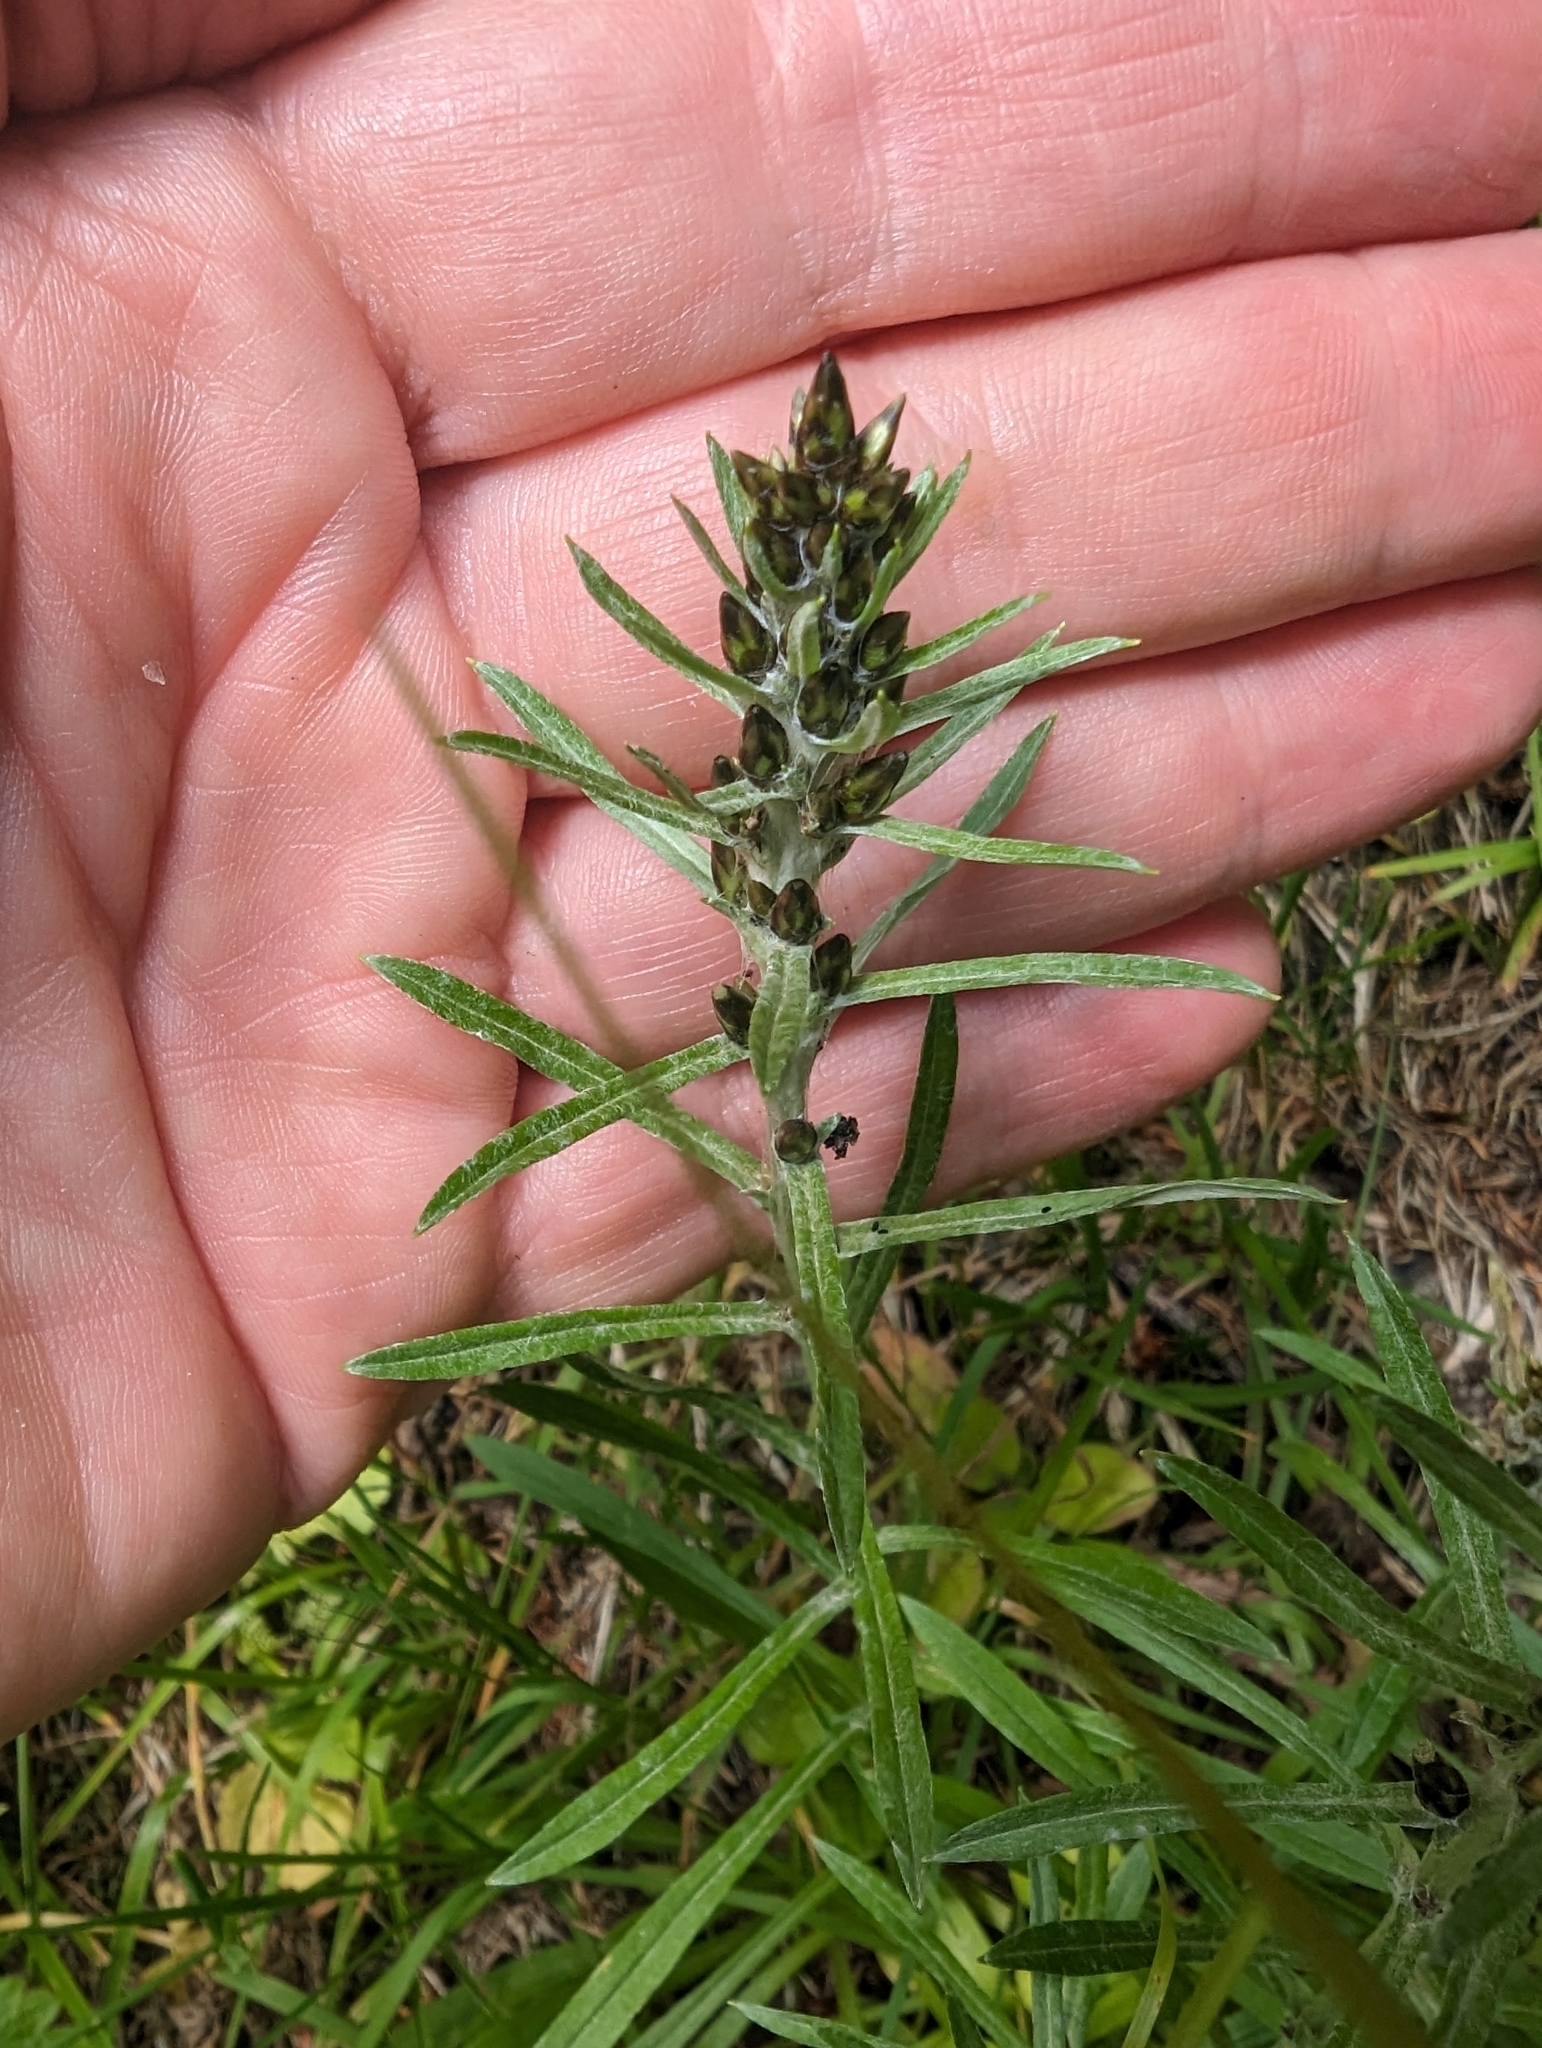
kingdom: Plantae
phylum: Tracheophyta
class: Magnoliopsida
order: Asterales
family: Asteraceae
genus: Omalotheca
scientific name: Omalotheca sylvatica
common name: Heath cudweed
